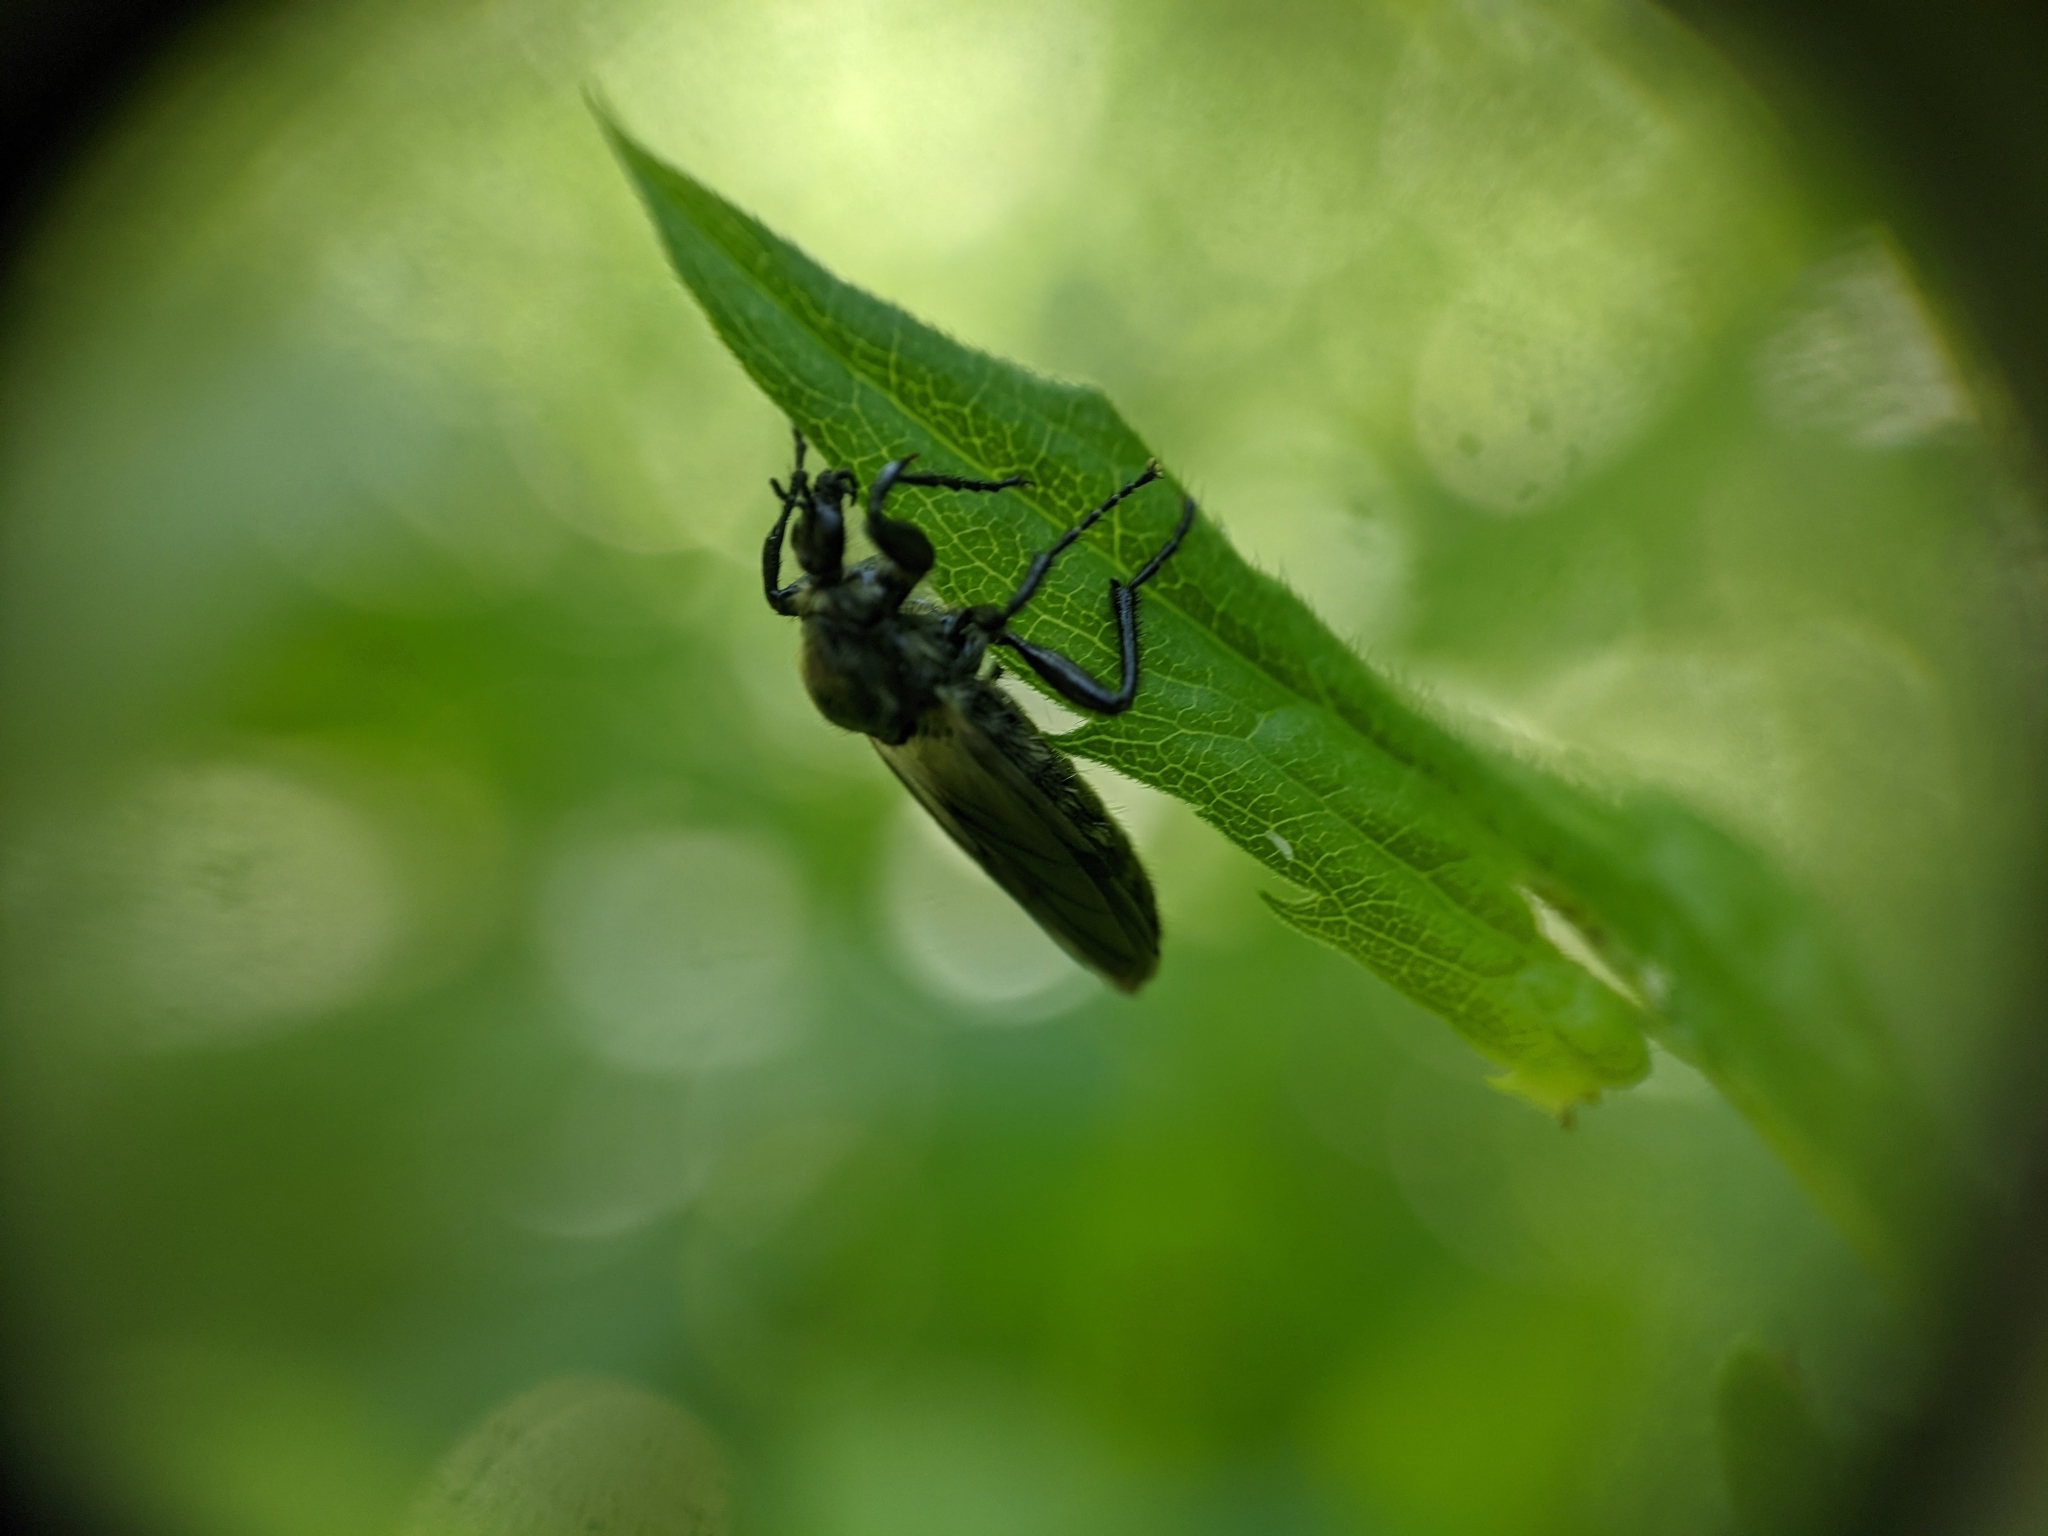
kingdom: Animalia
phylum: Arthropoda
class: Insecta
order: Diptera
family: Bibionidae
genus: Bibio
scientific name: Bibio albipennis
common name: White-winged march fly
